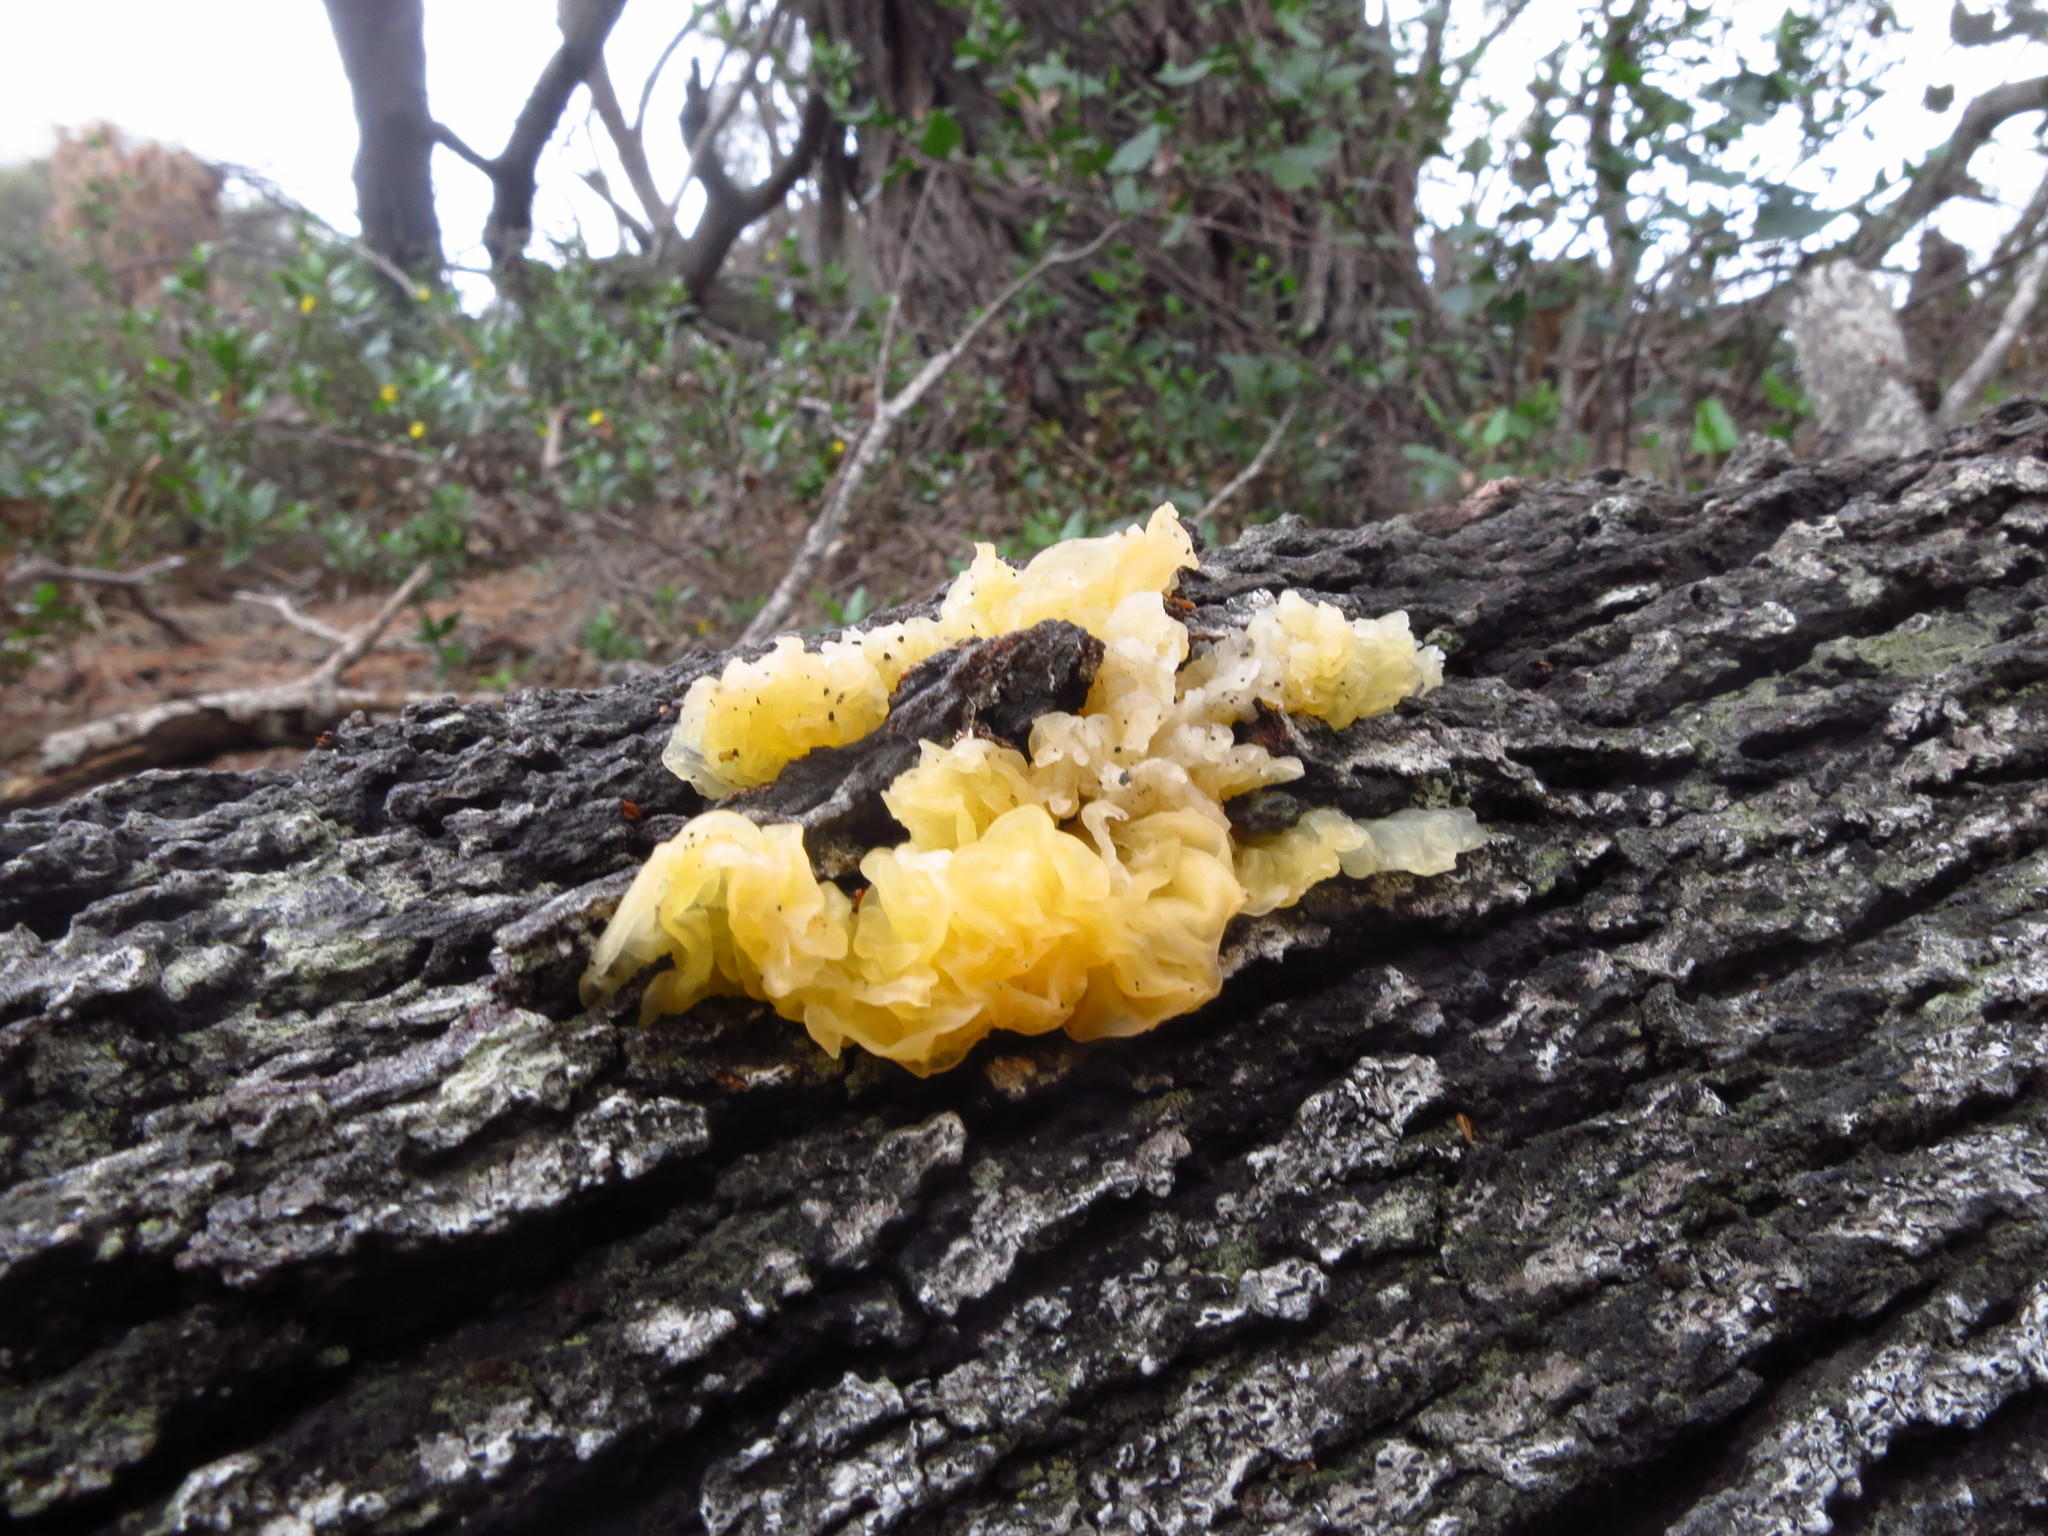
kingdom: Fungi
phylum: Basidiomycota
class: Tremellomycetes
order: Tremellales
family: Tremellaceae
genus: Tremella
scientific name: Tremella mesenterica
